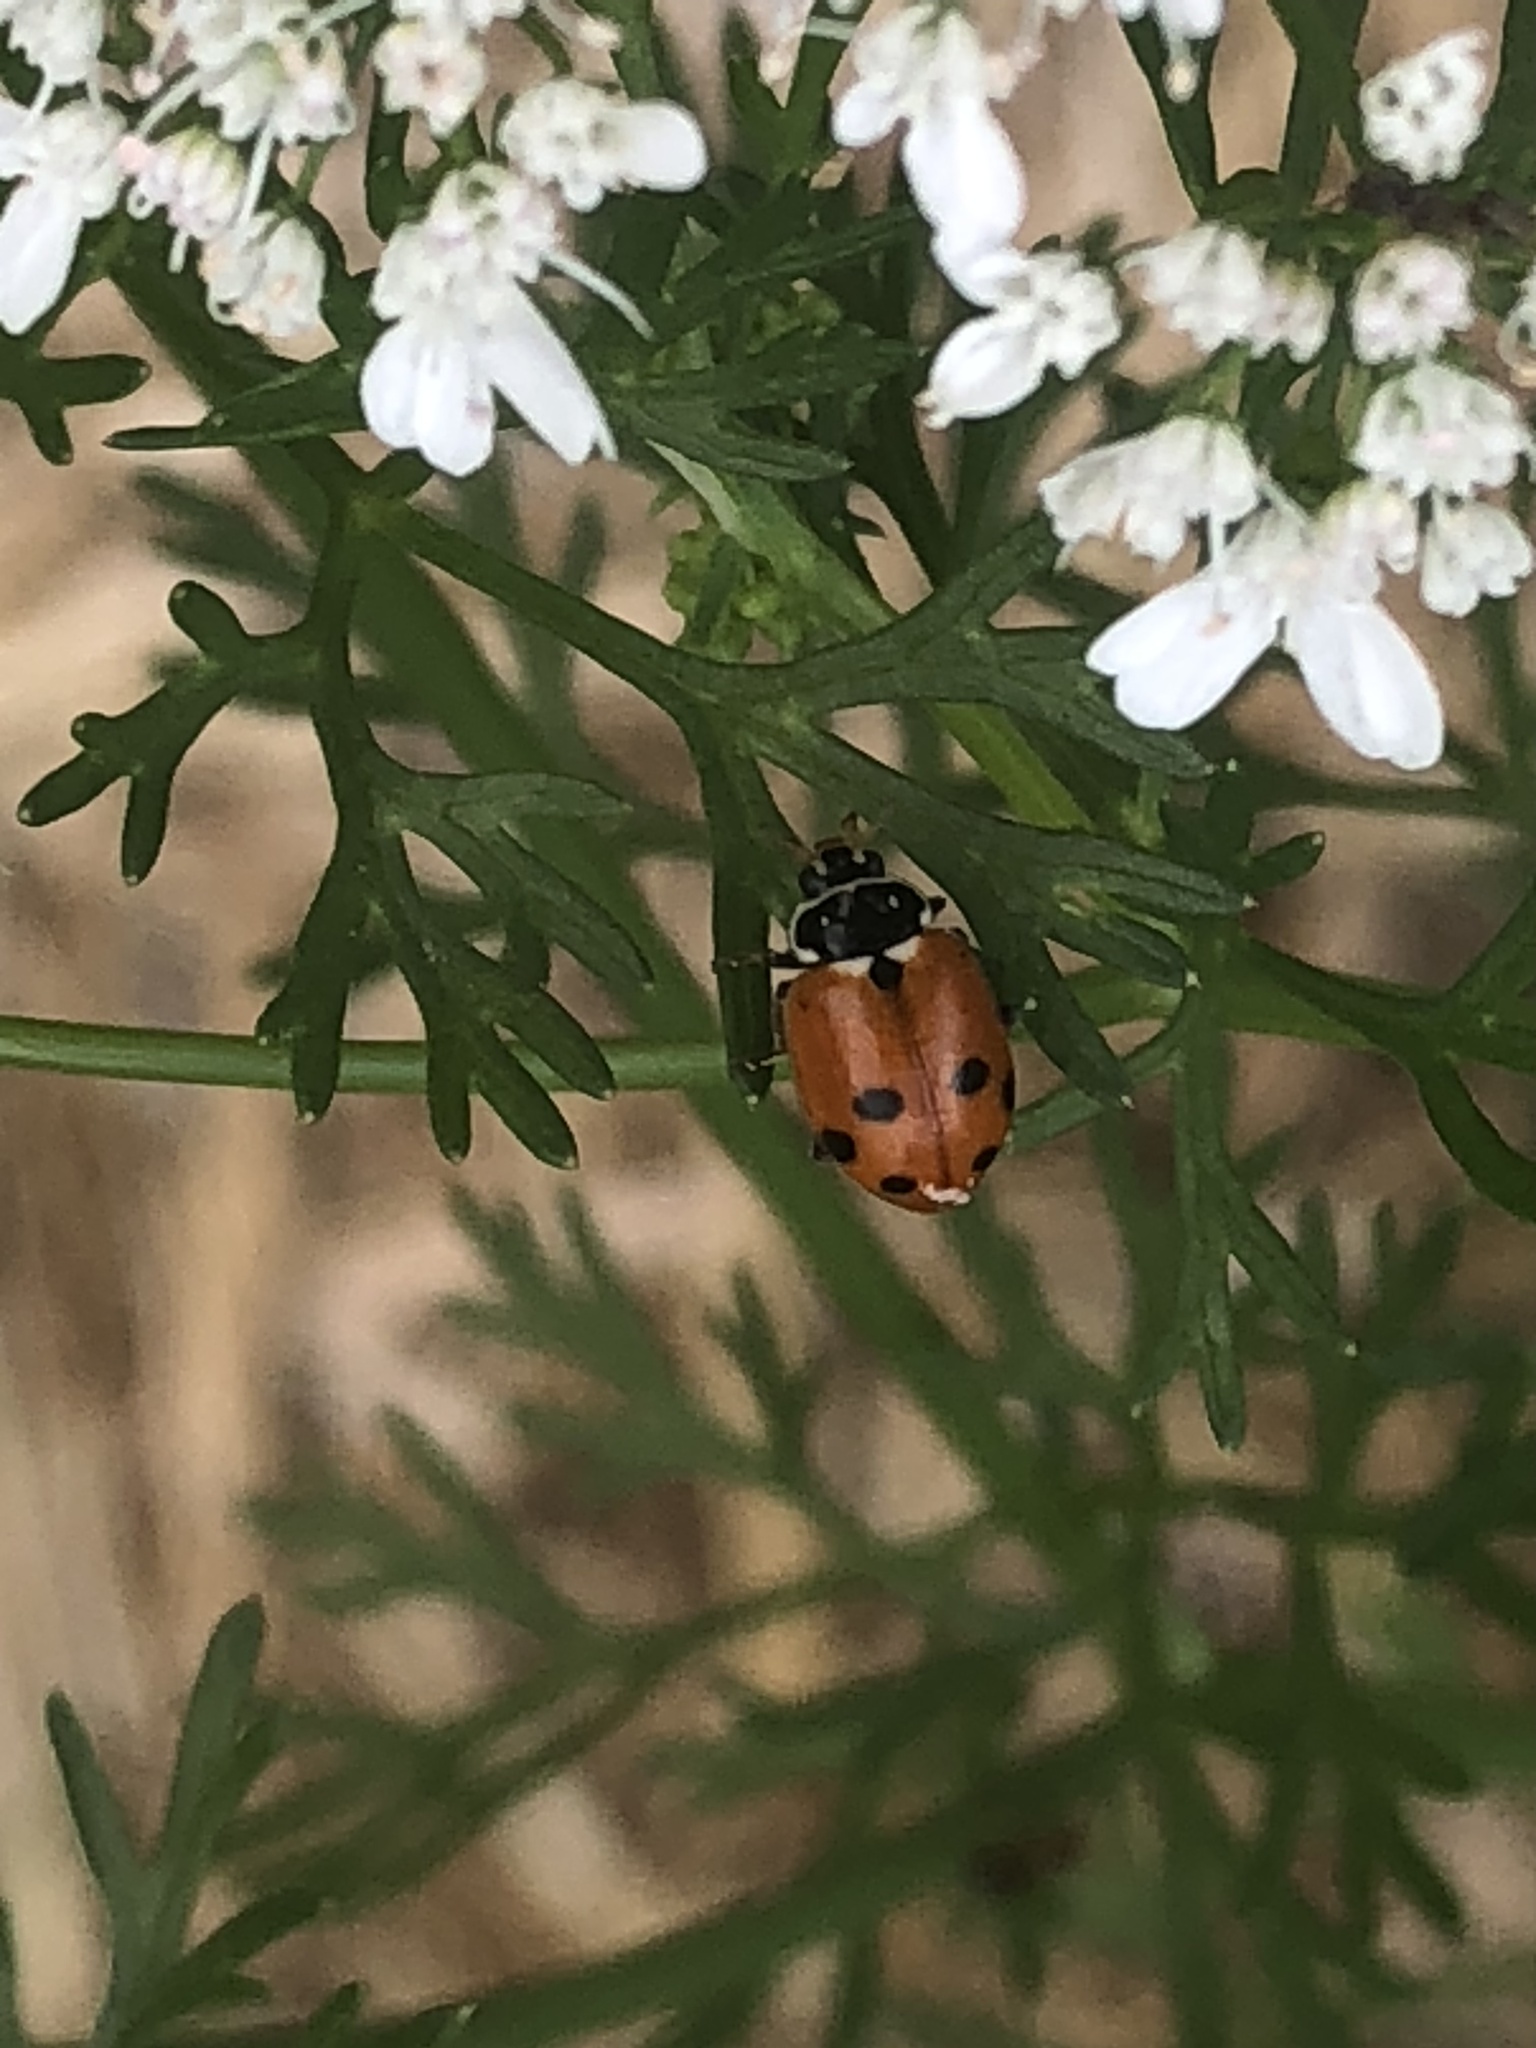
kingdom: Animalia
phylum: Arthropoda
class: Insecta
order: Coleoptera
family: Coccinellidae
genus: Hippodamia
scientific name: Hippodamia variegata
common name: Ladybird beetle
